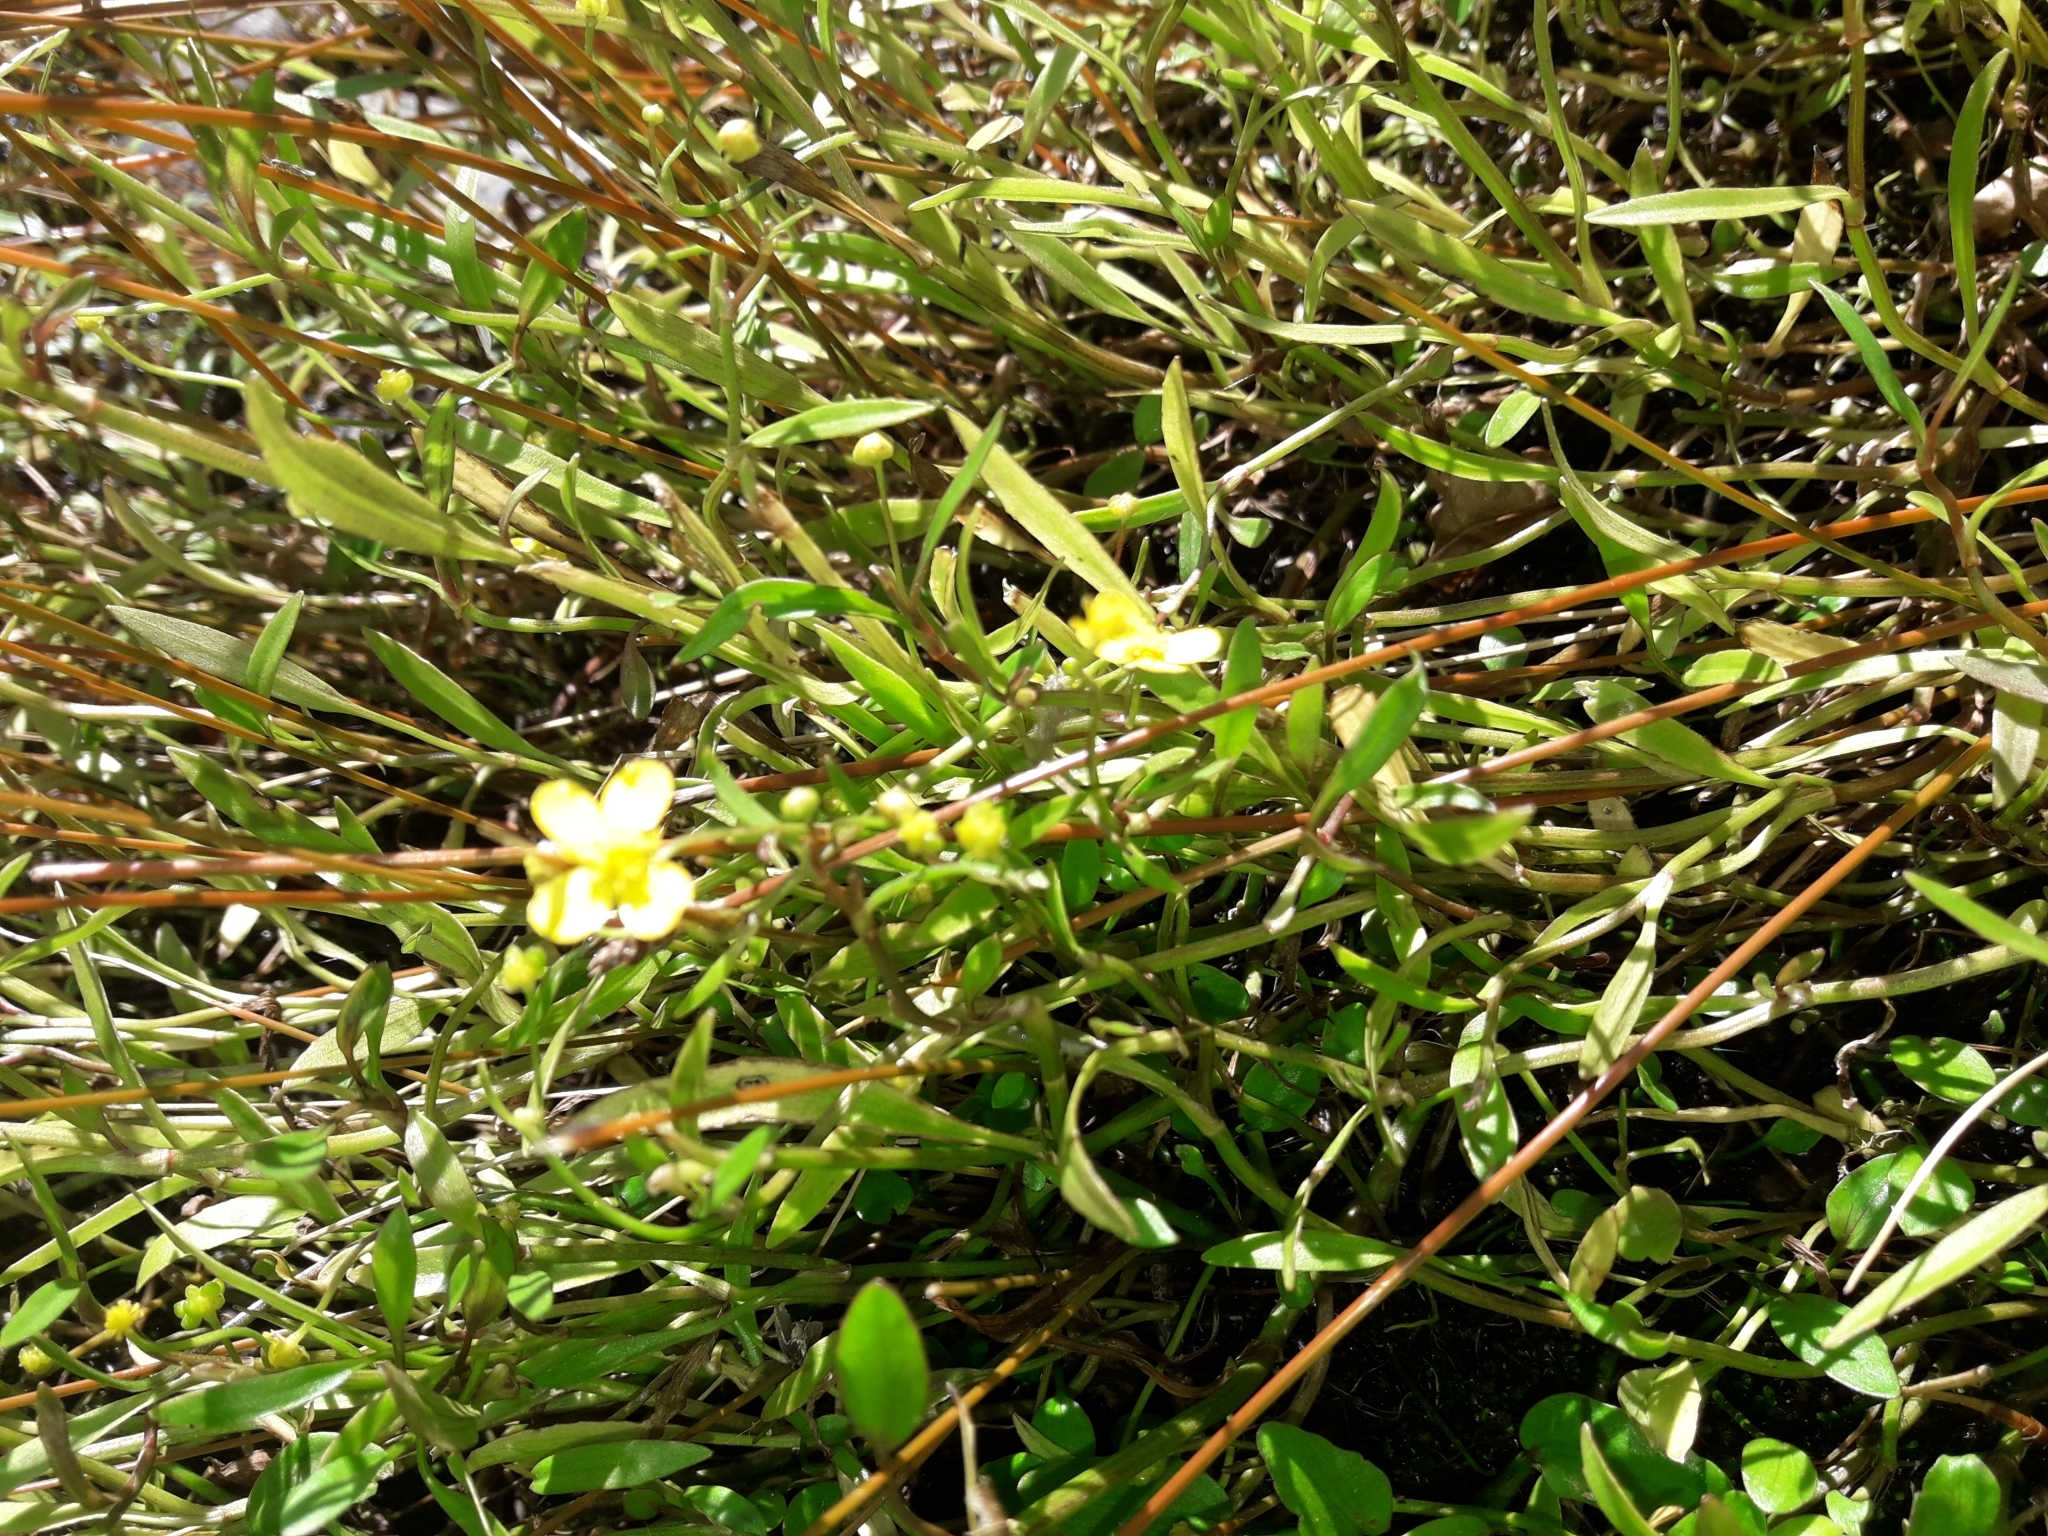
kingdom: Plantae
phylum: Tracheophyta
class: Magnoliopsida
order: Ranunculales
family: Ranunculaceae
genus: Ranunculus
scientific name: Ranunculus flammula
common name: Lesser spearwort
